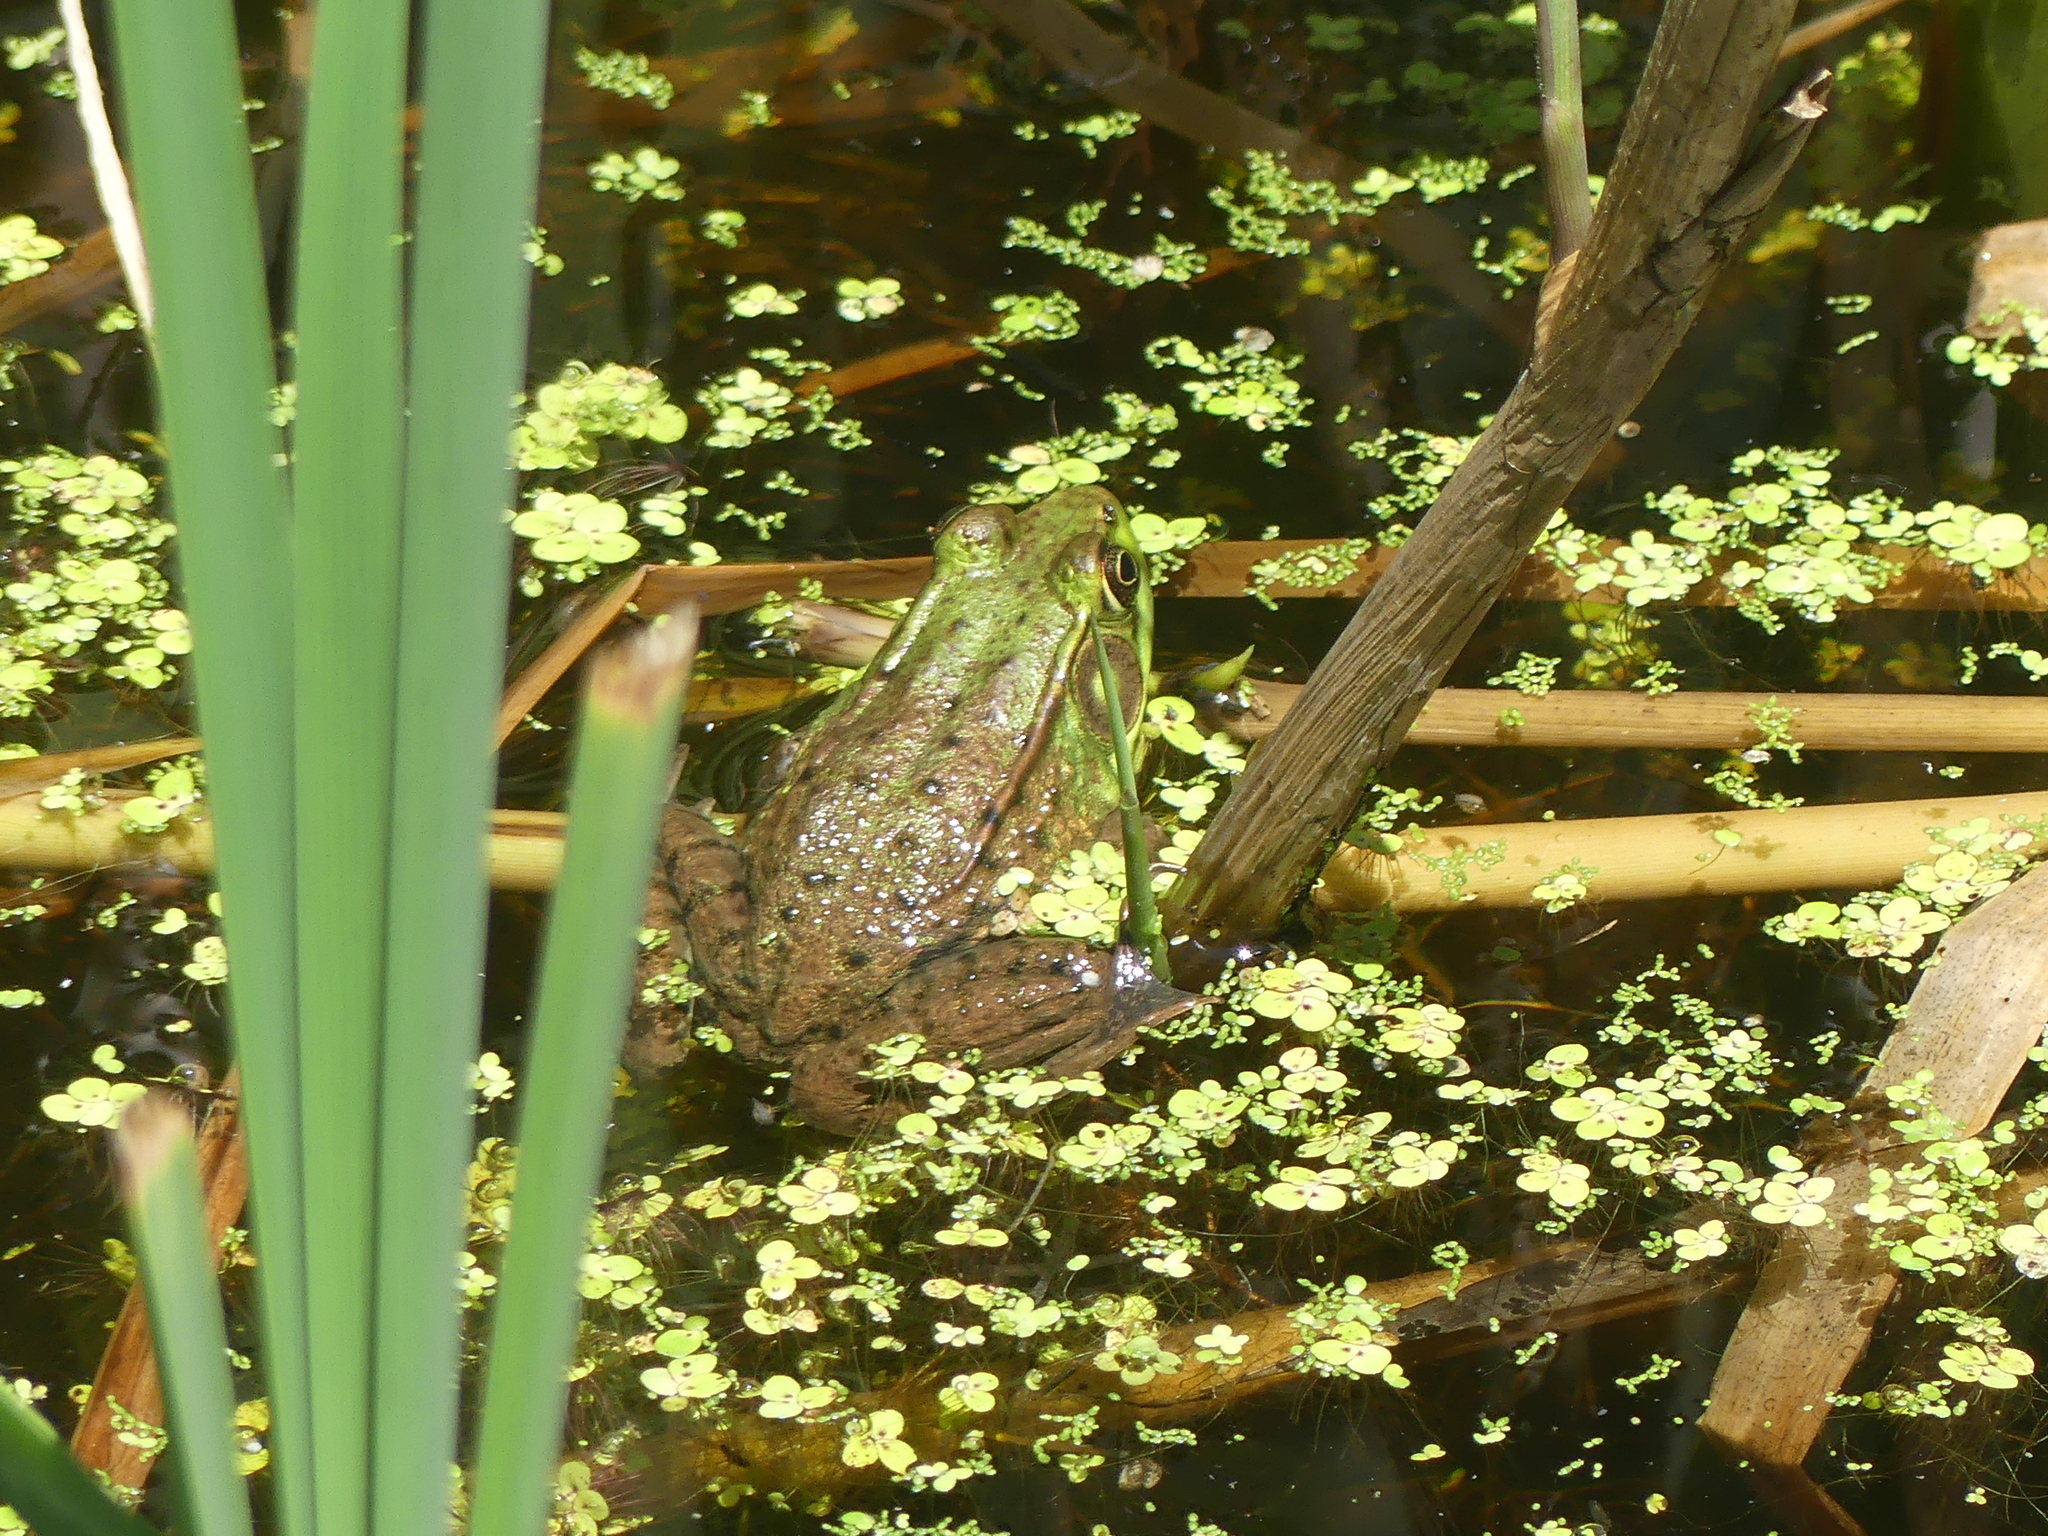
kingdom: Animalia
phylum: Chordata
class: Amphibia
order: Anura
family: Ranidae
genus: Lithobates
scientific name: Lithobates clamitans
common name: Green frog
